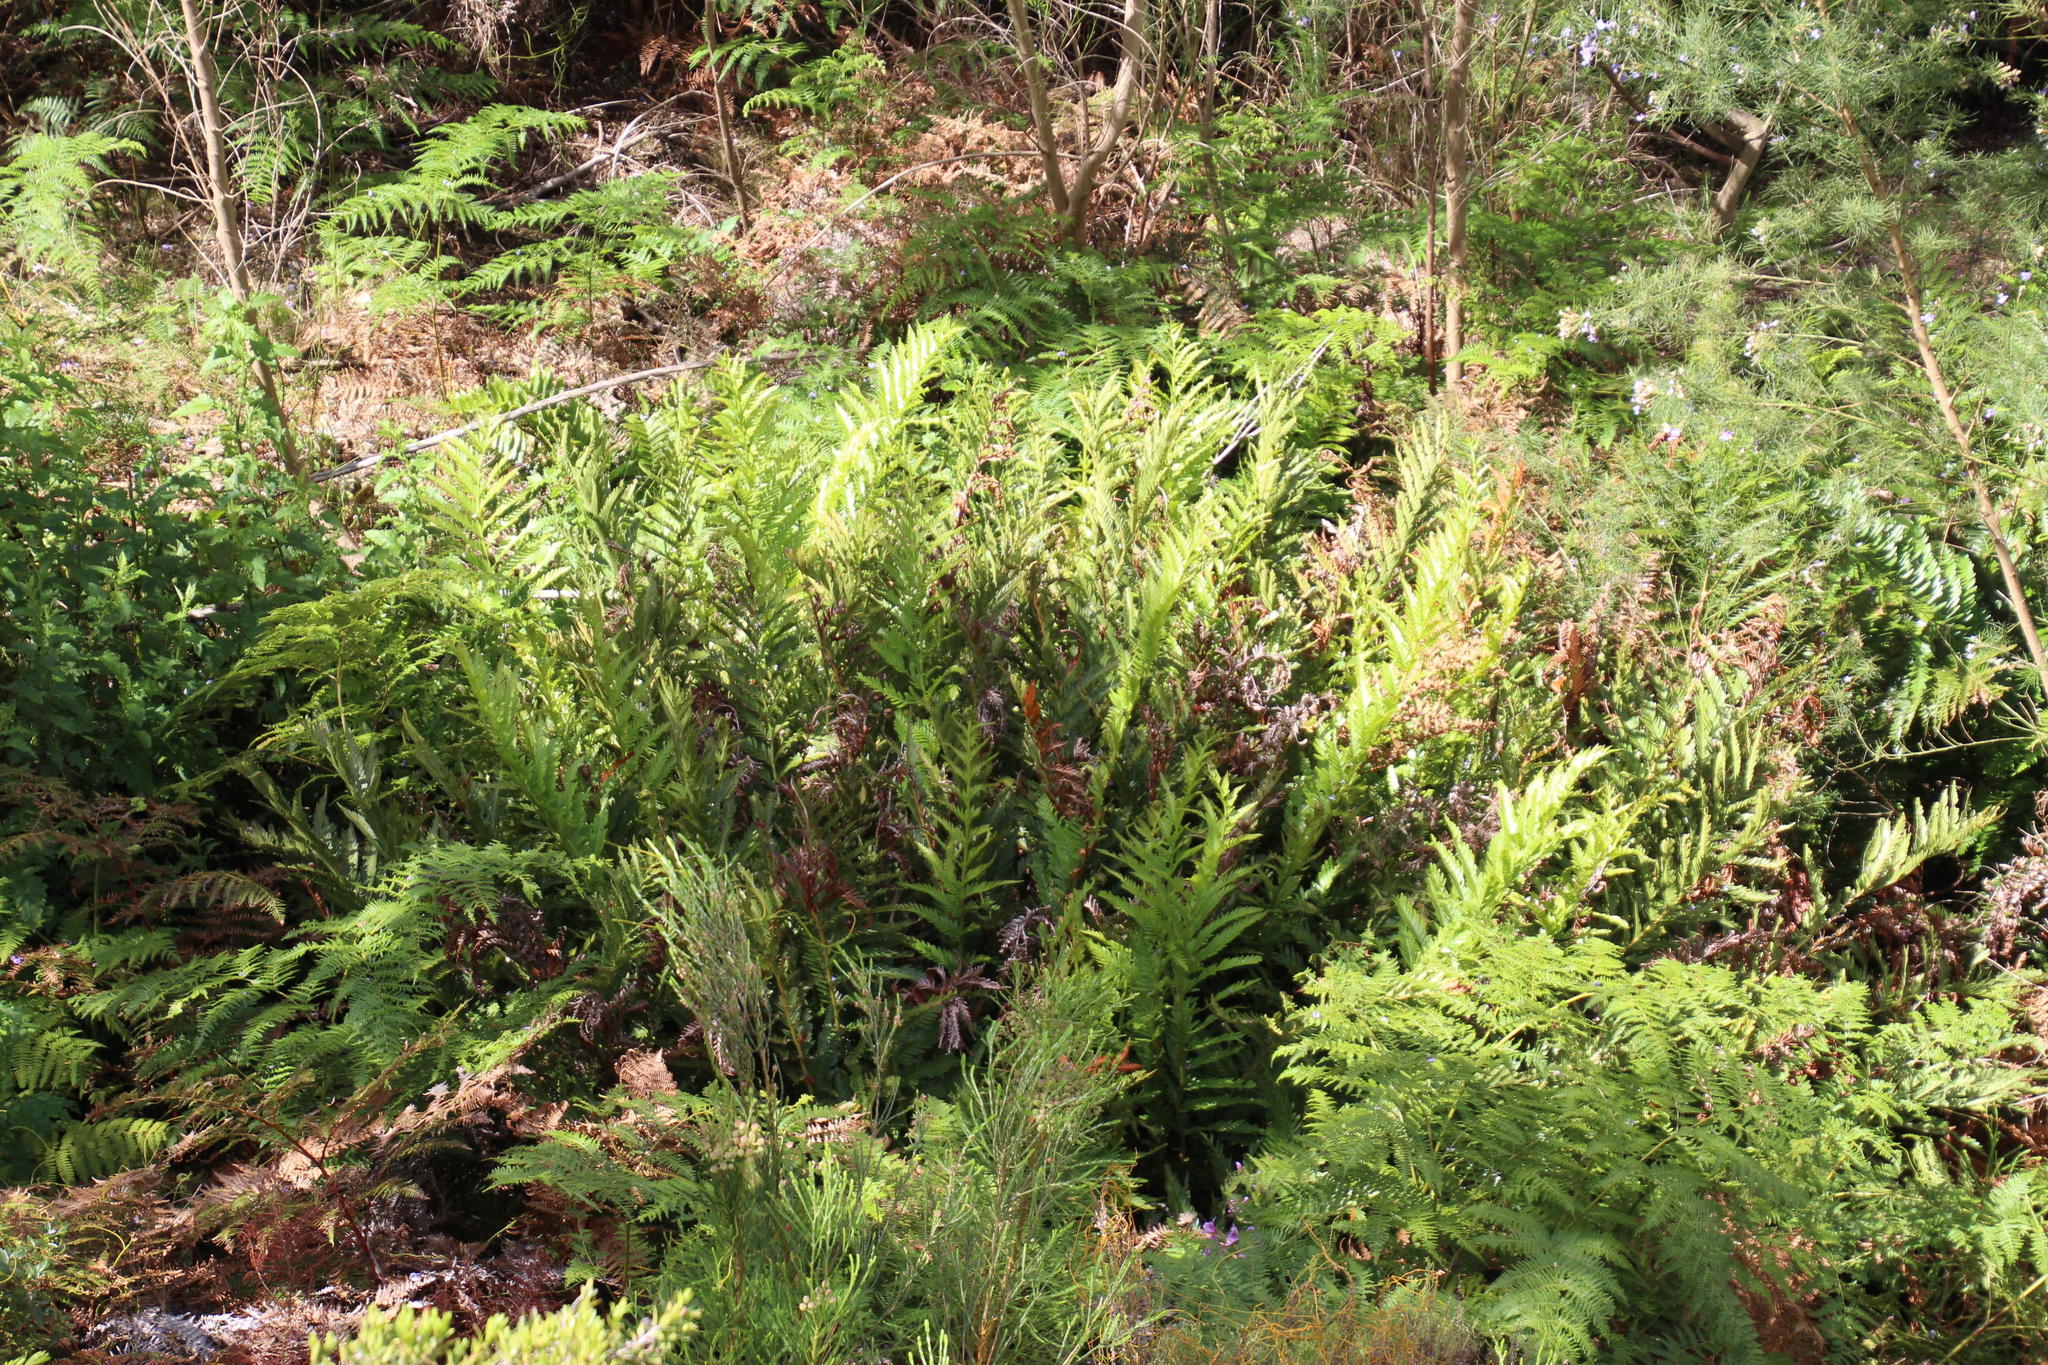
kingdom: Plantae
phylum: Tracheophyta
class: Polypodiopsida
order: Osmundales
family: Osmundaceae
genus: Todea
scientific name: Todea barbara
